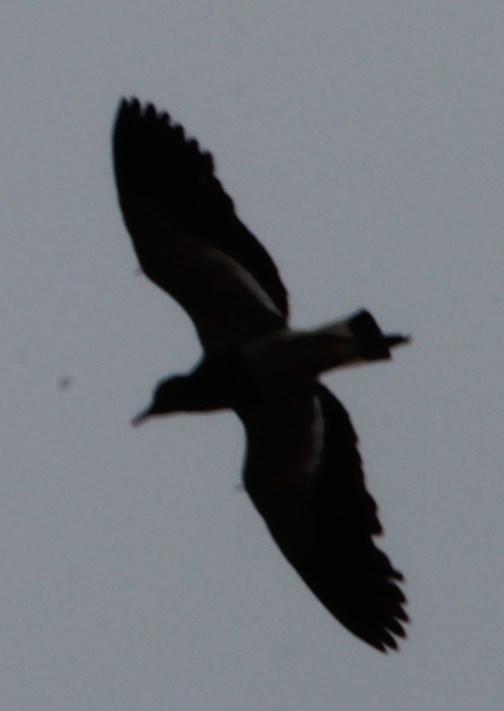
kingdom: Animalia
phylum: Chordata
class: Aves
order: Charadriiformes
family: Charadriidae
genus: Vanellus
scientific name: Vanellus coronatus
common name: Crowned lapwing
